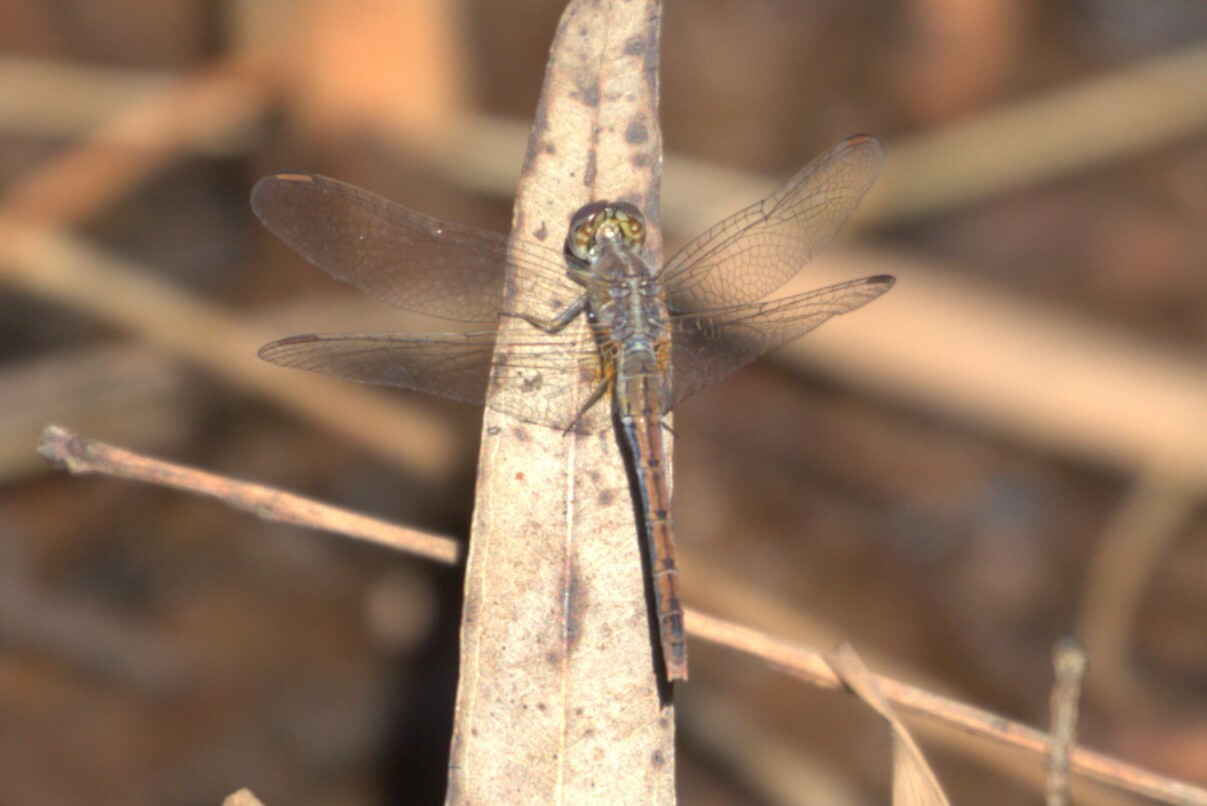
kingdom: Animalia
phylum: Arthropoda
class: Insecta
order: Odonata
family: Libellulidae
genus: Diplacodes
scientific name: Diplacodes bipunctata
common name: Red percher dragonfly
